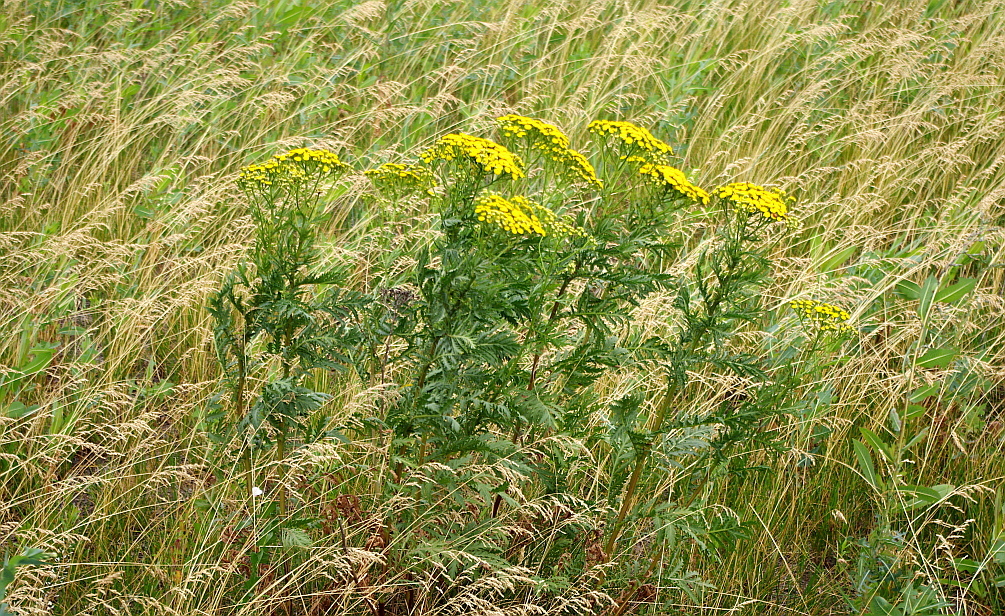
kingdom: Plantae
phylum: Tracheophyta
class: Magnoliopsida
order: Asterales
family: Asteraceae
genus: Tanacetum
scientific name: Tanacetum vulgare
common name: Common tansy
